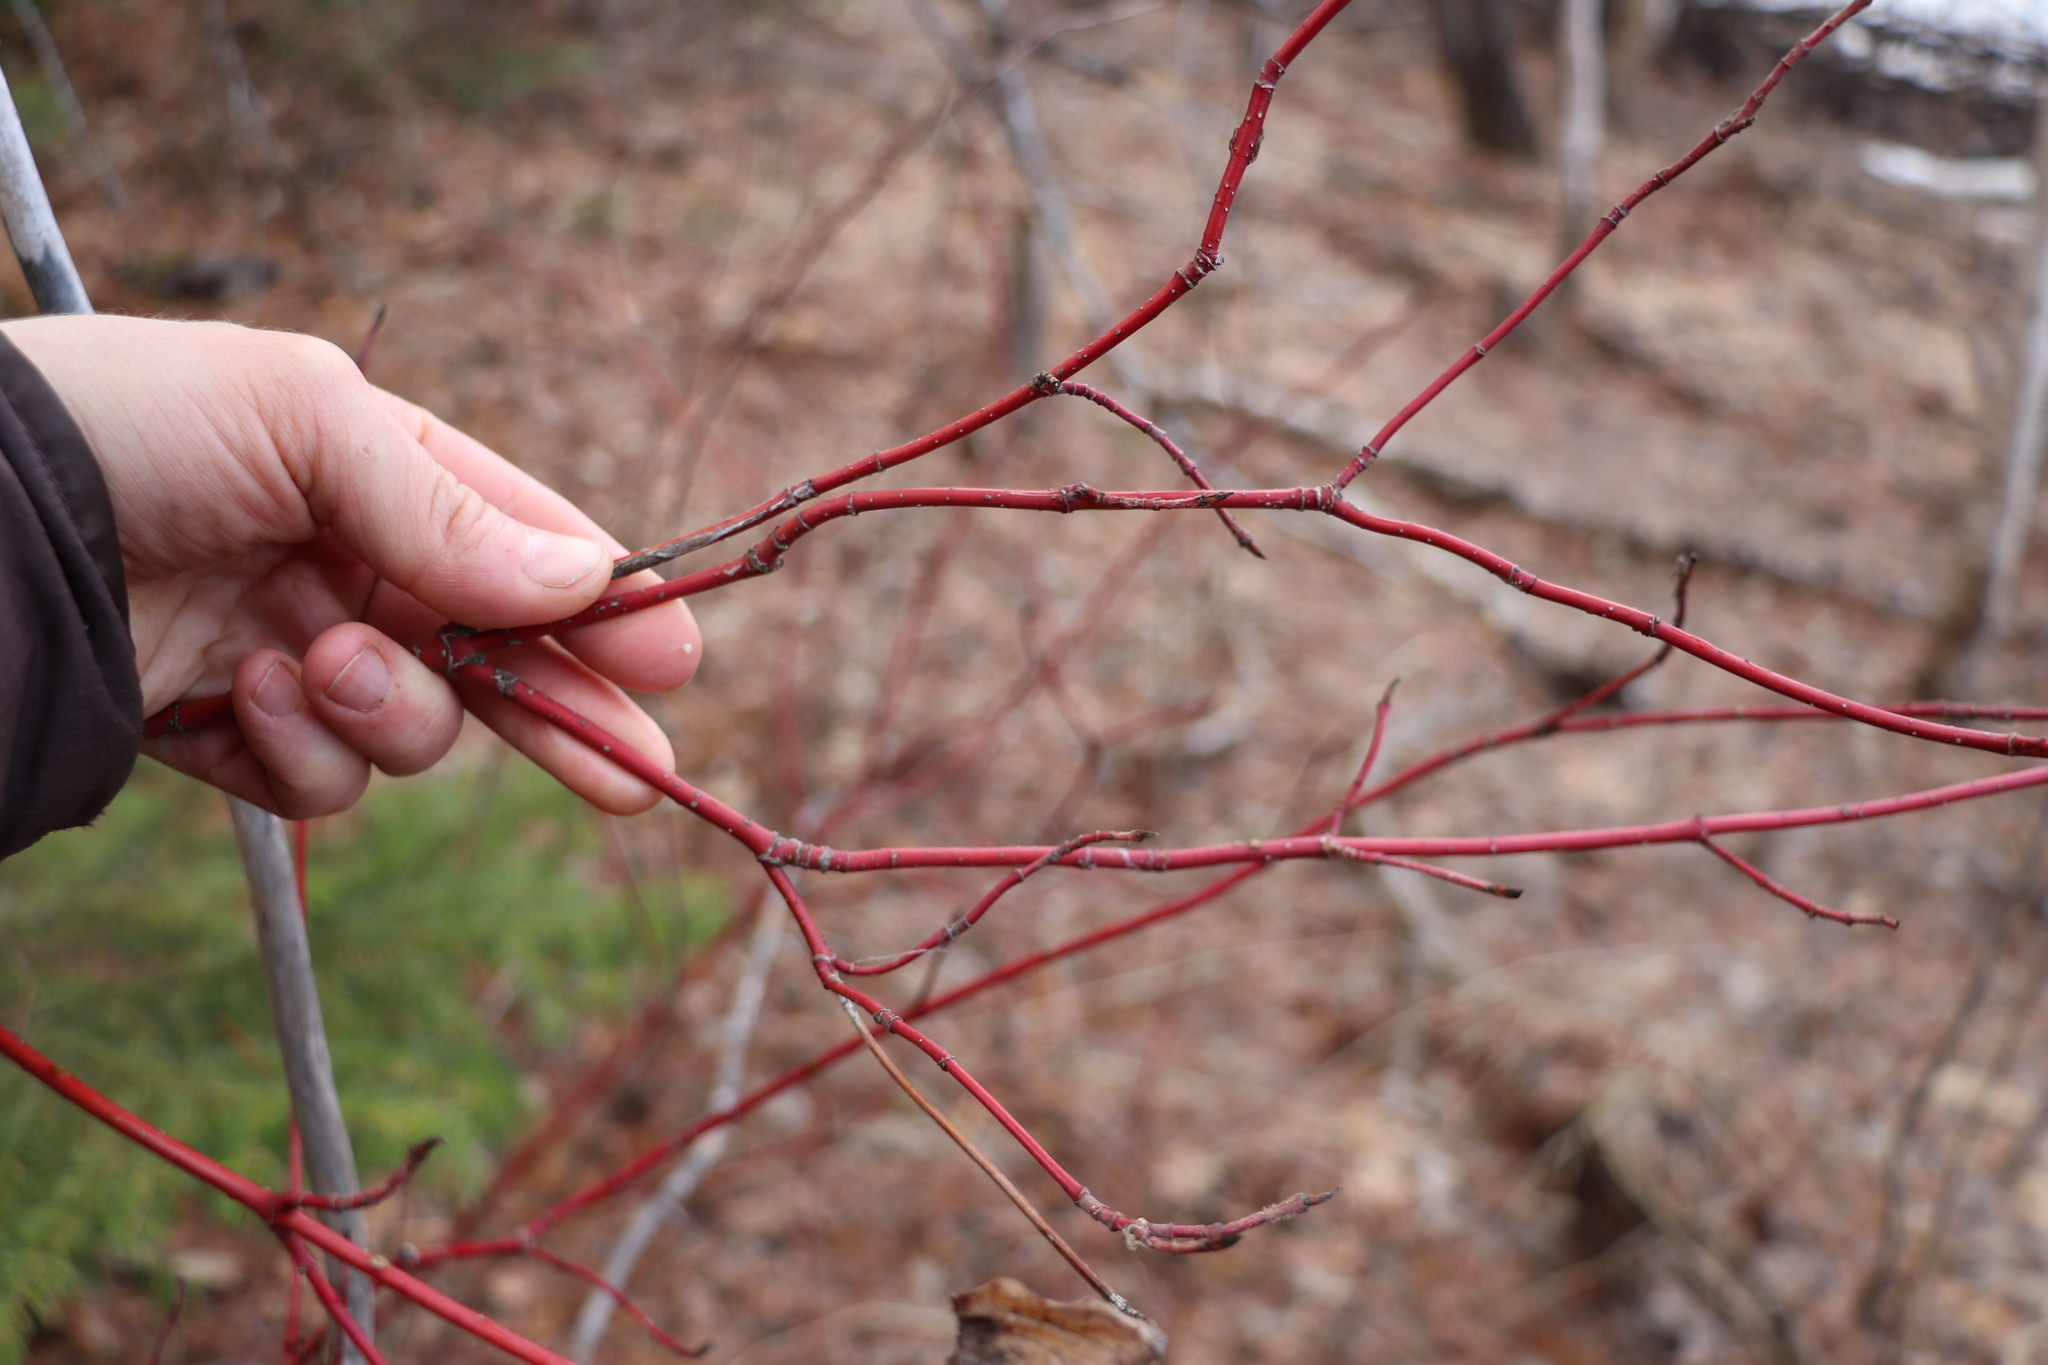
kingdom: Plantae
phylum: Tracheophyta
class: Magnoliopsida
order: Cornales
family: Cornaceae
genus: Cornus
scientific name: Cornus alba
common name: White dogwood
